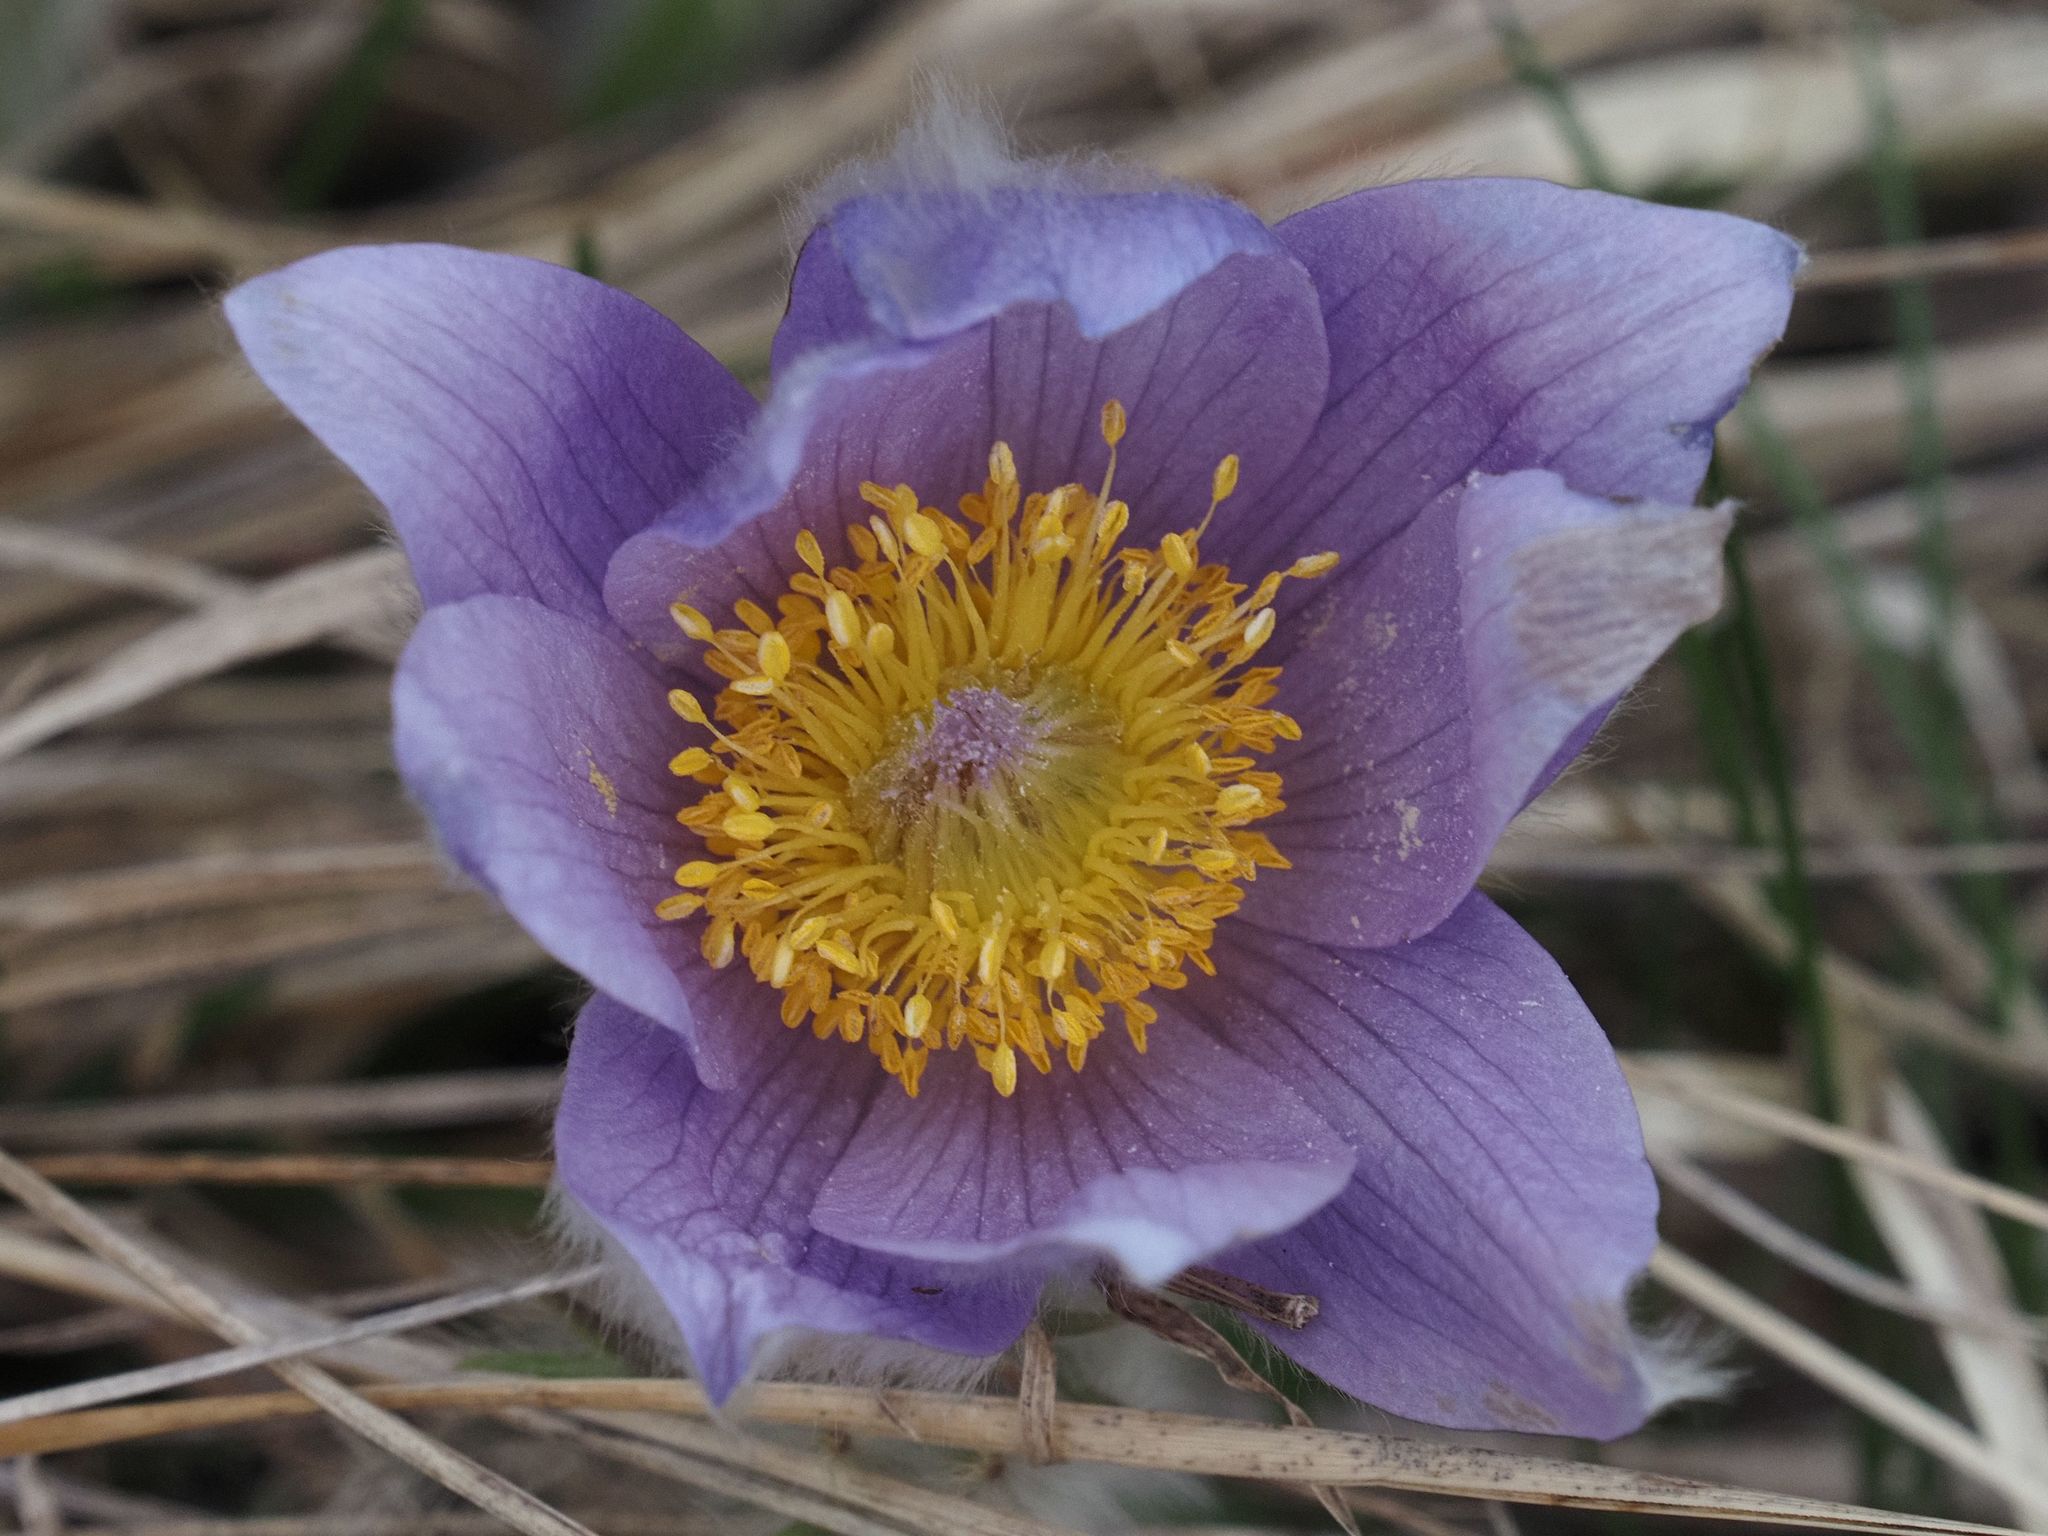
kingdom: Plantae
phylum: Tracheophyta
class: Magnoliopsida
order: Ranunculales
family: Ranunculaceae
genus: Pulsatilla
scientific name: Pulsatilla grandis
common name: Greater pasque flower
